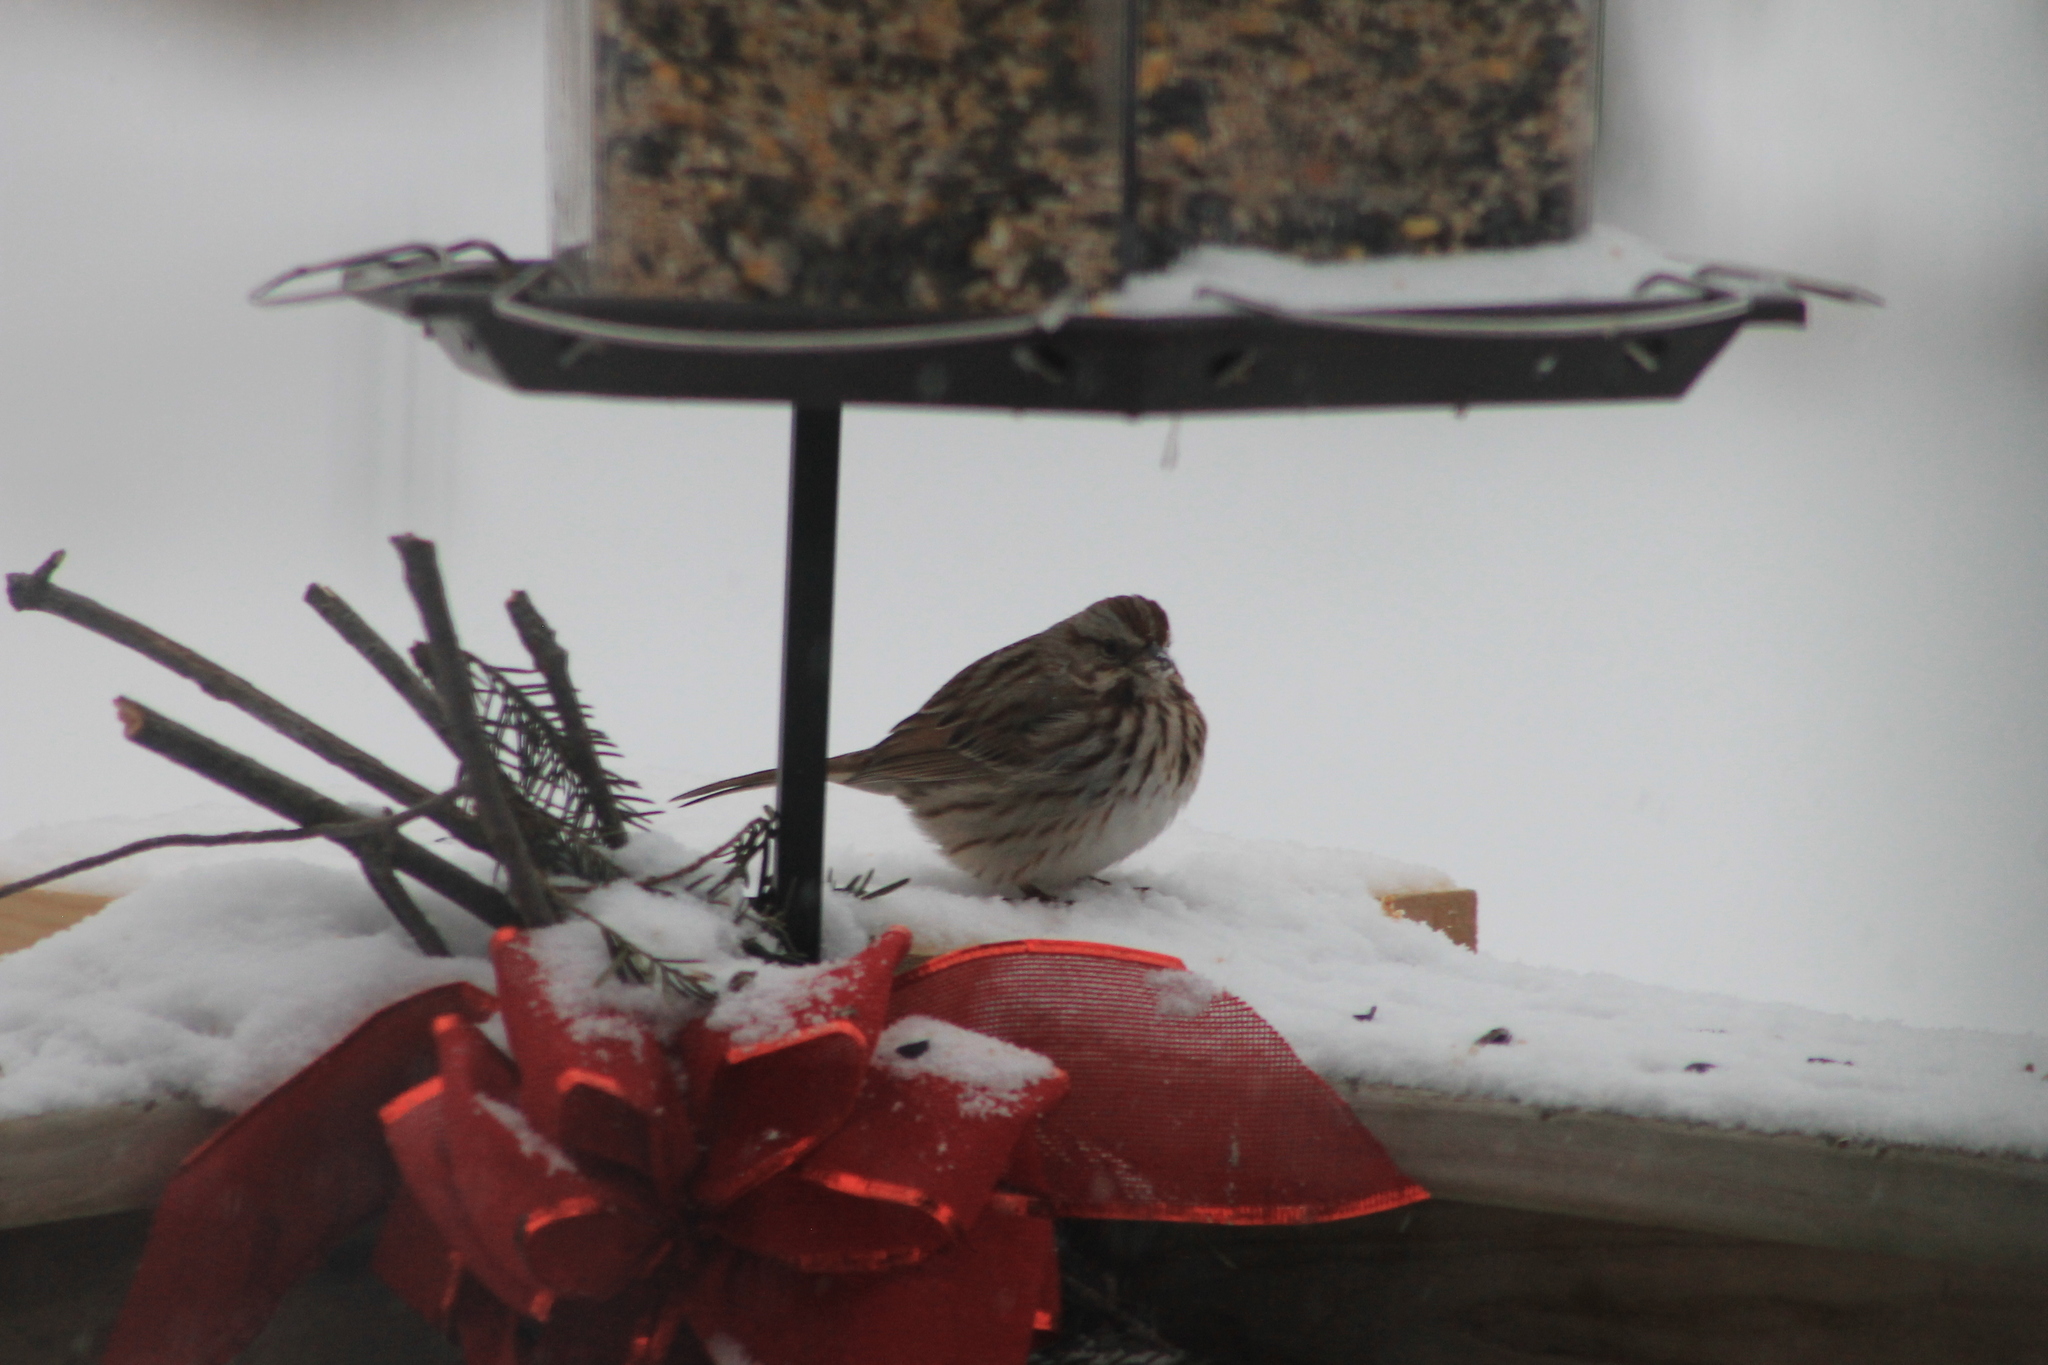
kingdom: Animalia
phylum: Chordata
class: Aves
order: Passeriformes
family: Passerellidae
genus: Melospiza
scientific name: Melospiza melodia
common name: Song sparrow
